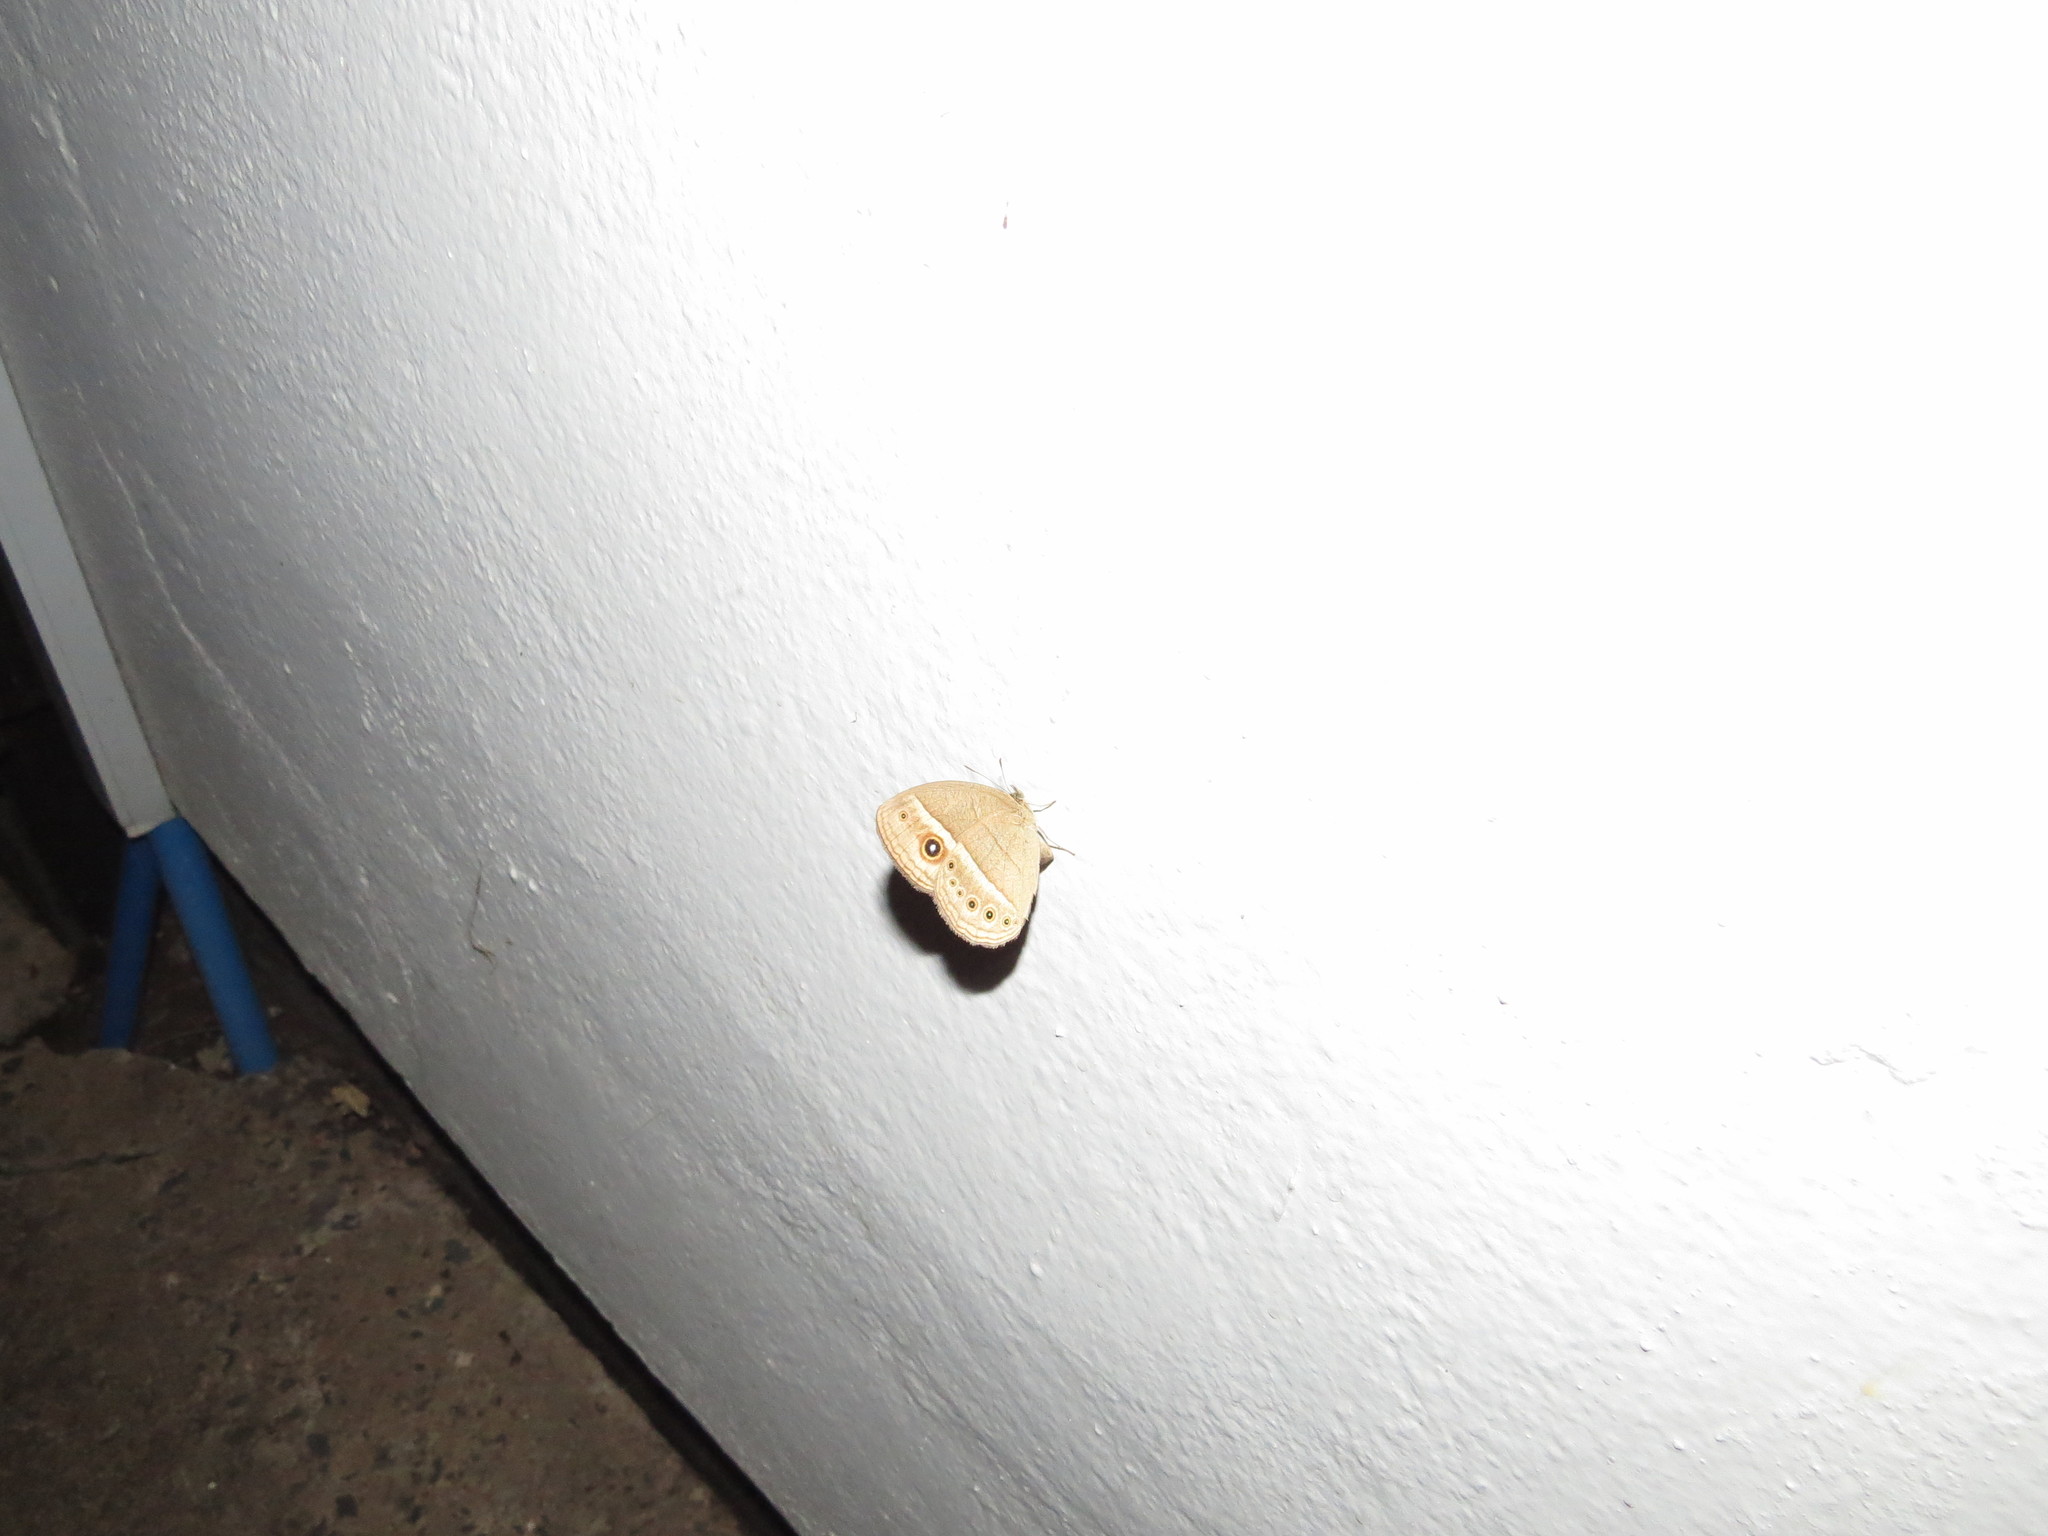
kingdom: Animalia
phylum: Arthropoda
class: Insecta
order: Lepidoptera
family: Nymphalidae
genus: Heteropsis
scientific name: Heteropsis perspicua
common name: Eyed bush brown
